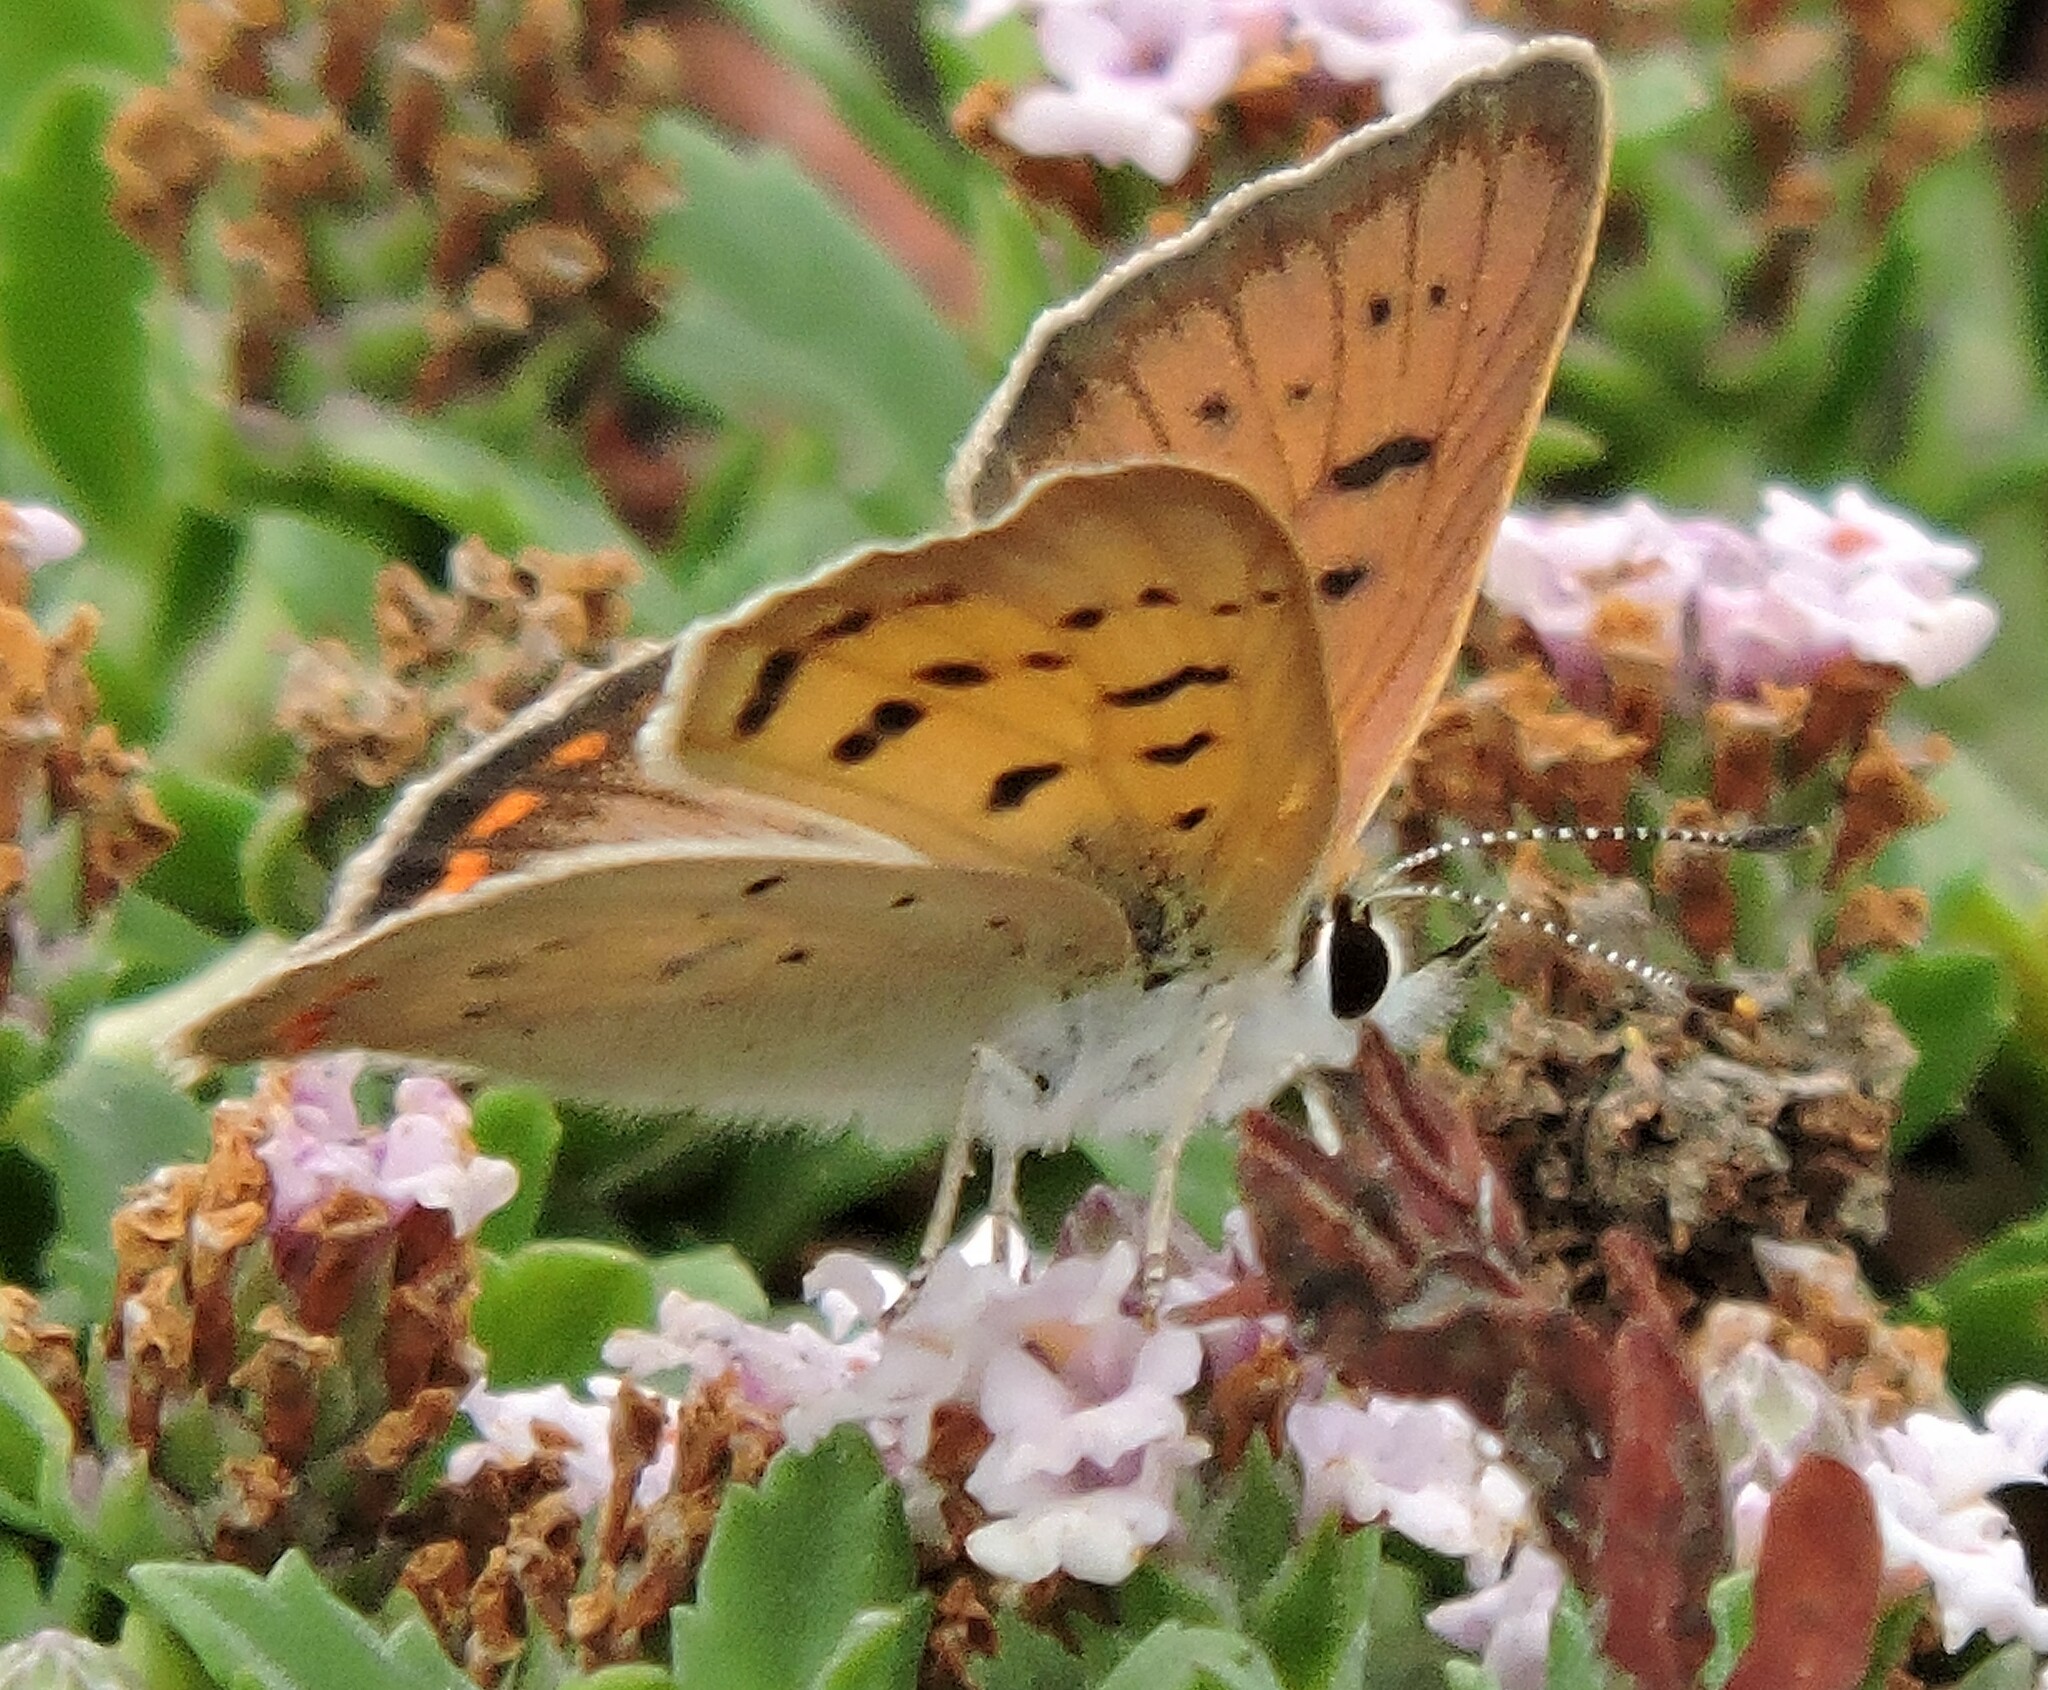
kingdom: Animalia
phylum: Arthropoda
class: Insecta
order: Lepidoptera
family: Lycaenidae
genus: Tharsalea
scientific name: Tharsalea helloides
